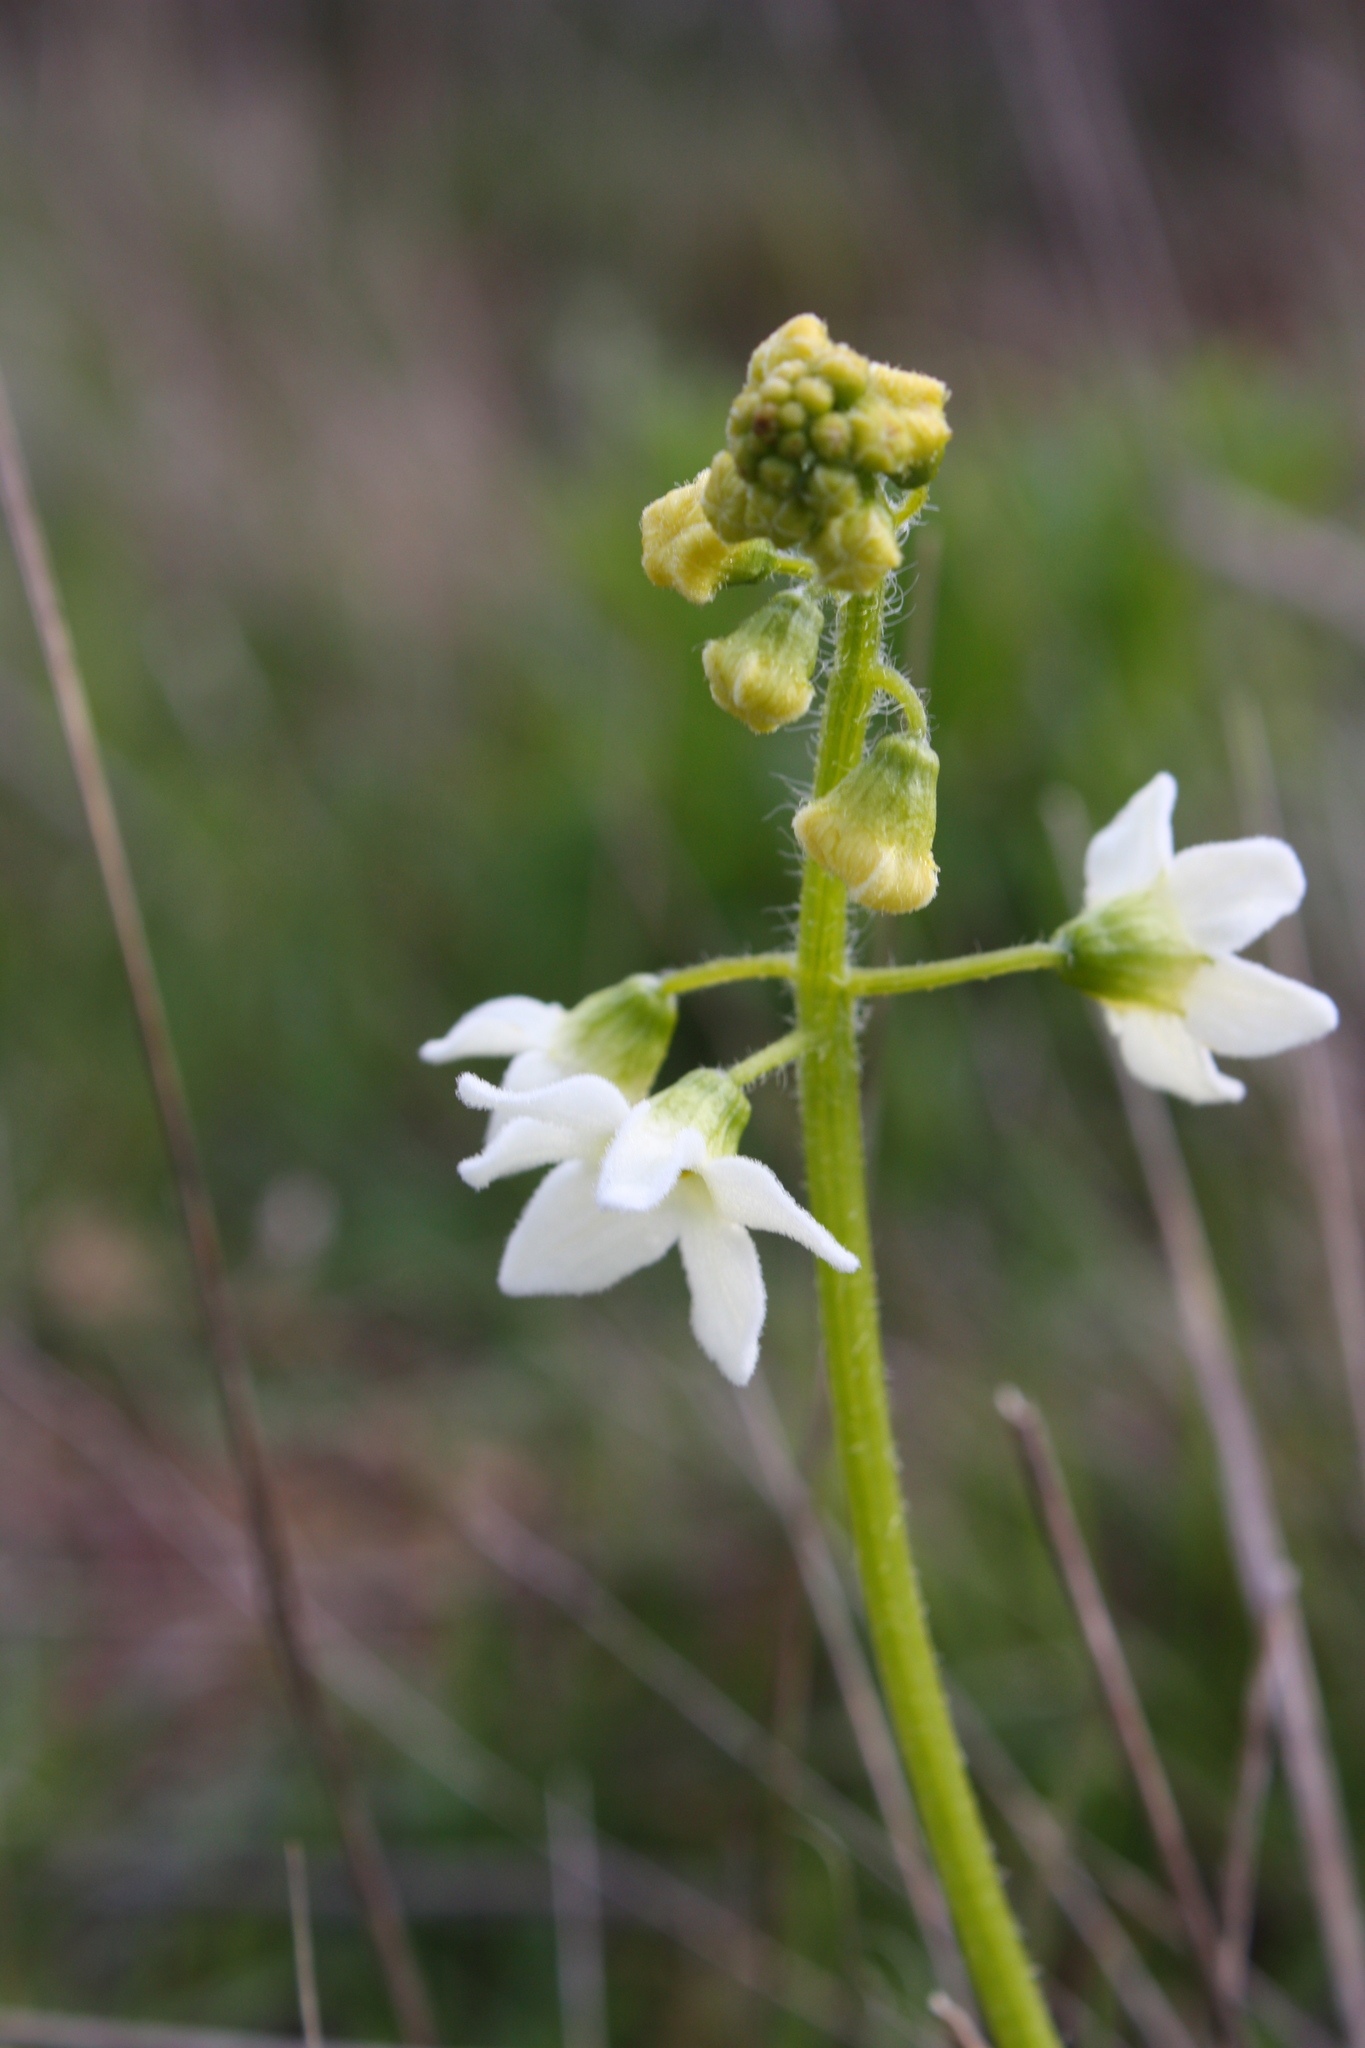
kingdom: Plantae
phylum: Tracheophyta
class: Magnoliopsida
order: Cucurbitales
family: Cucurbitaceae
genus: Marah
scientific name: Marah oregana
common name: Coastal manroot
